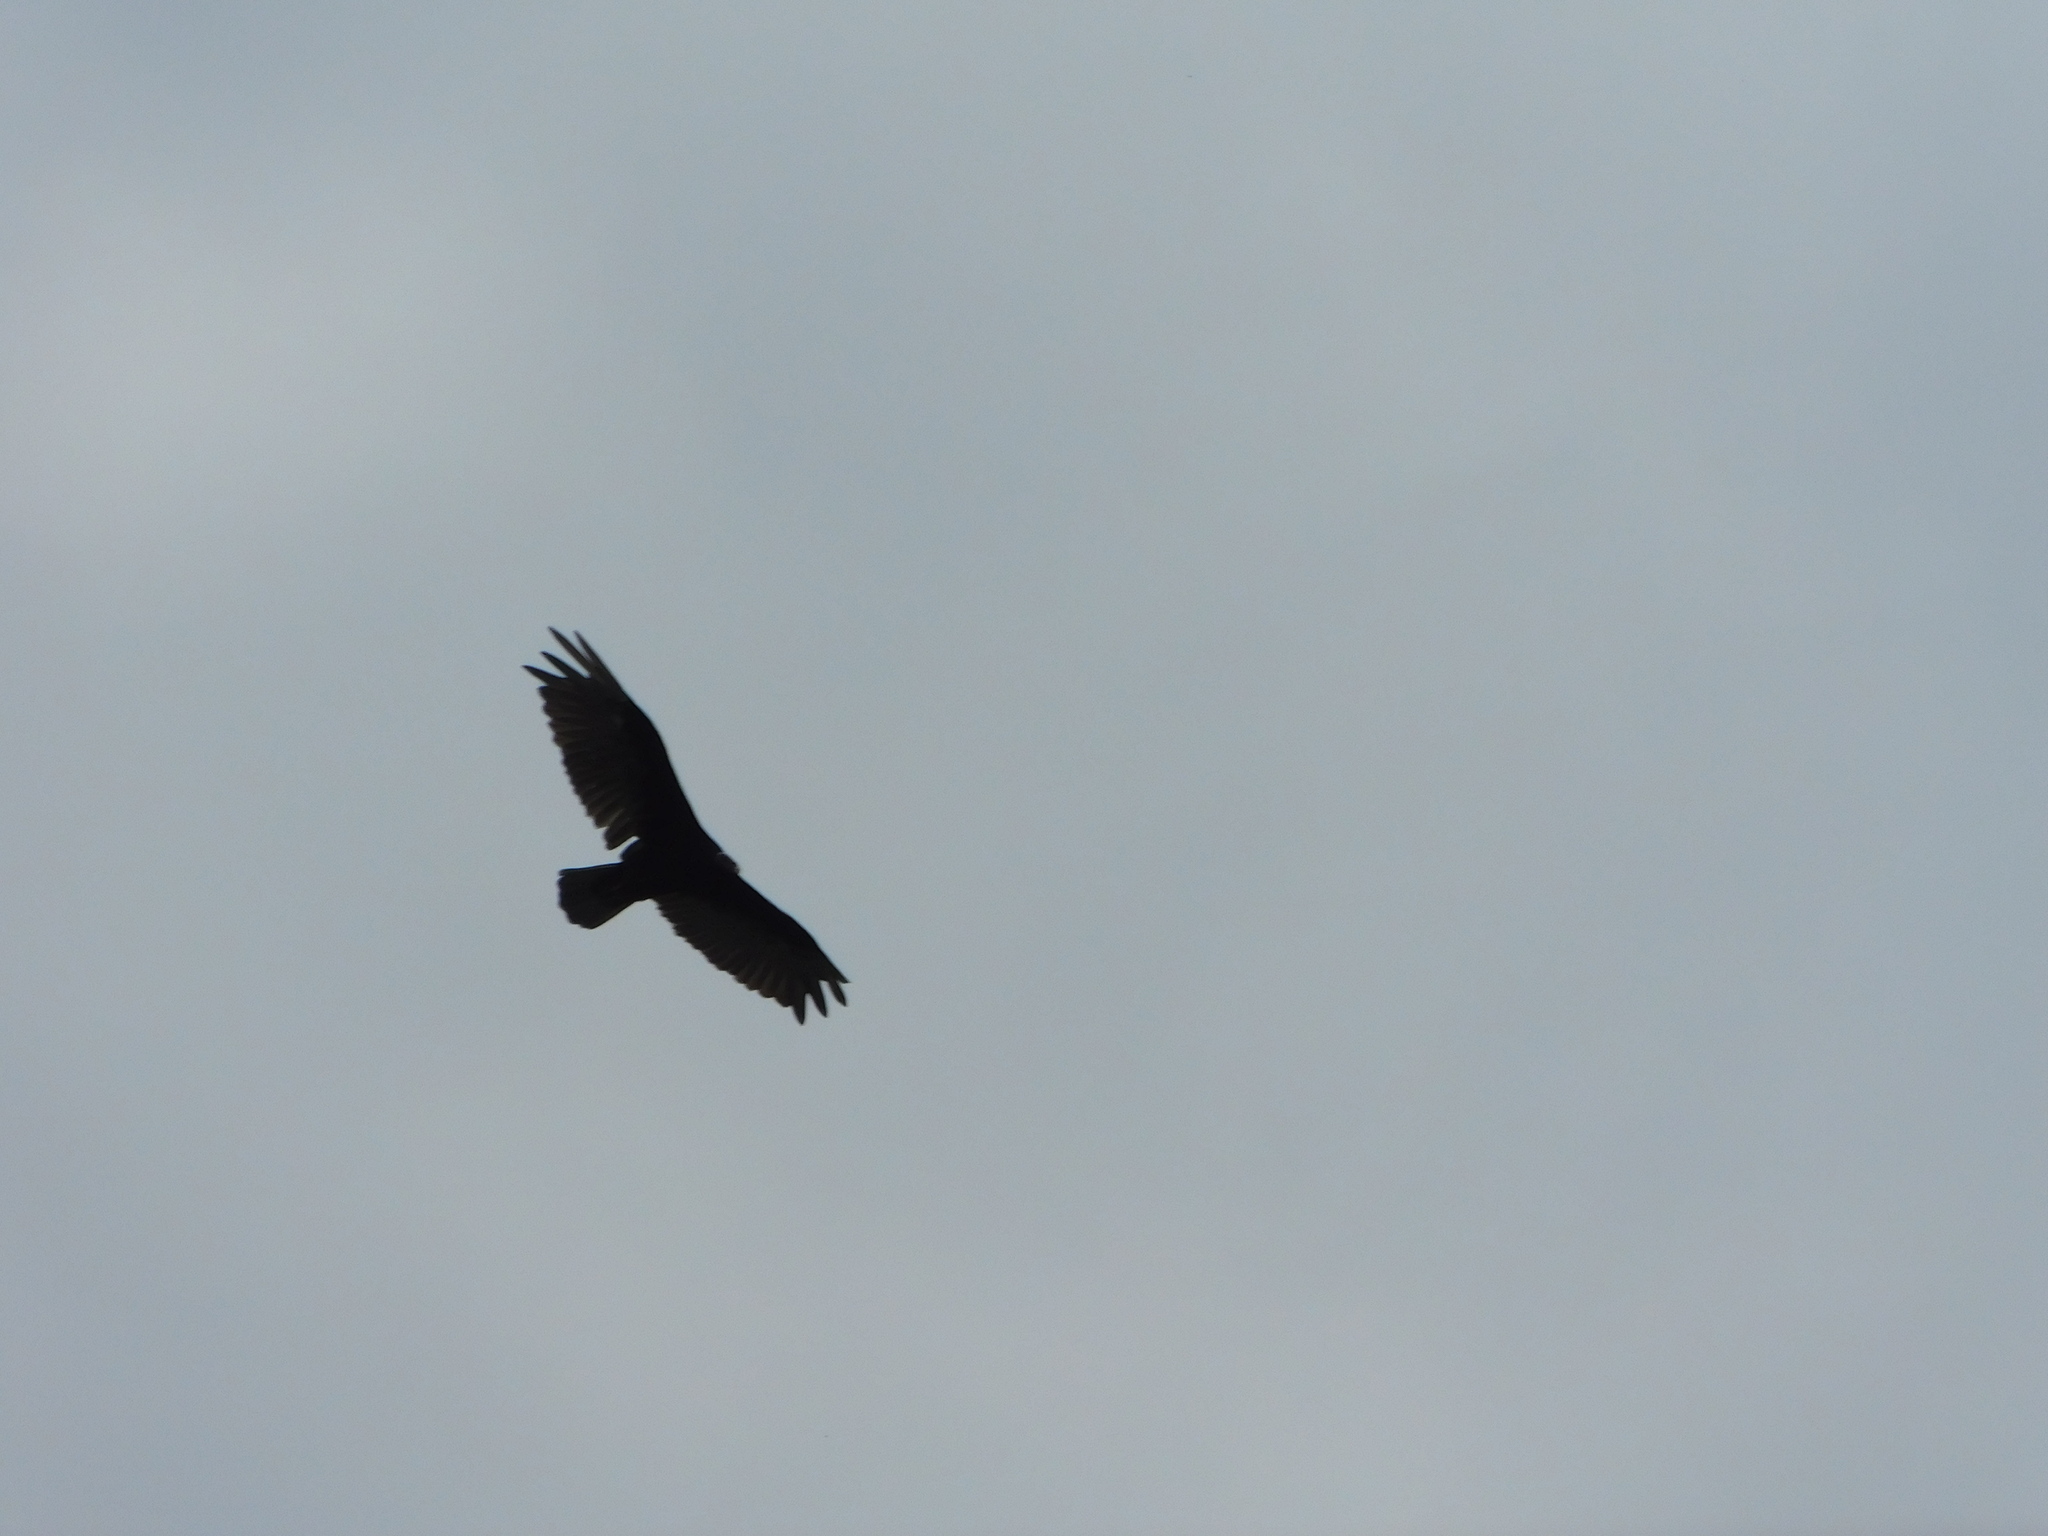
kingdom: Animalia
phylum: Chordata
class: Aves
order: Accipitriformes
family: Cathartidae
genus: Cathartes
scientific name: Cathartes aura
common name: Turkey vulture
